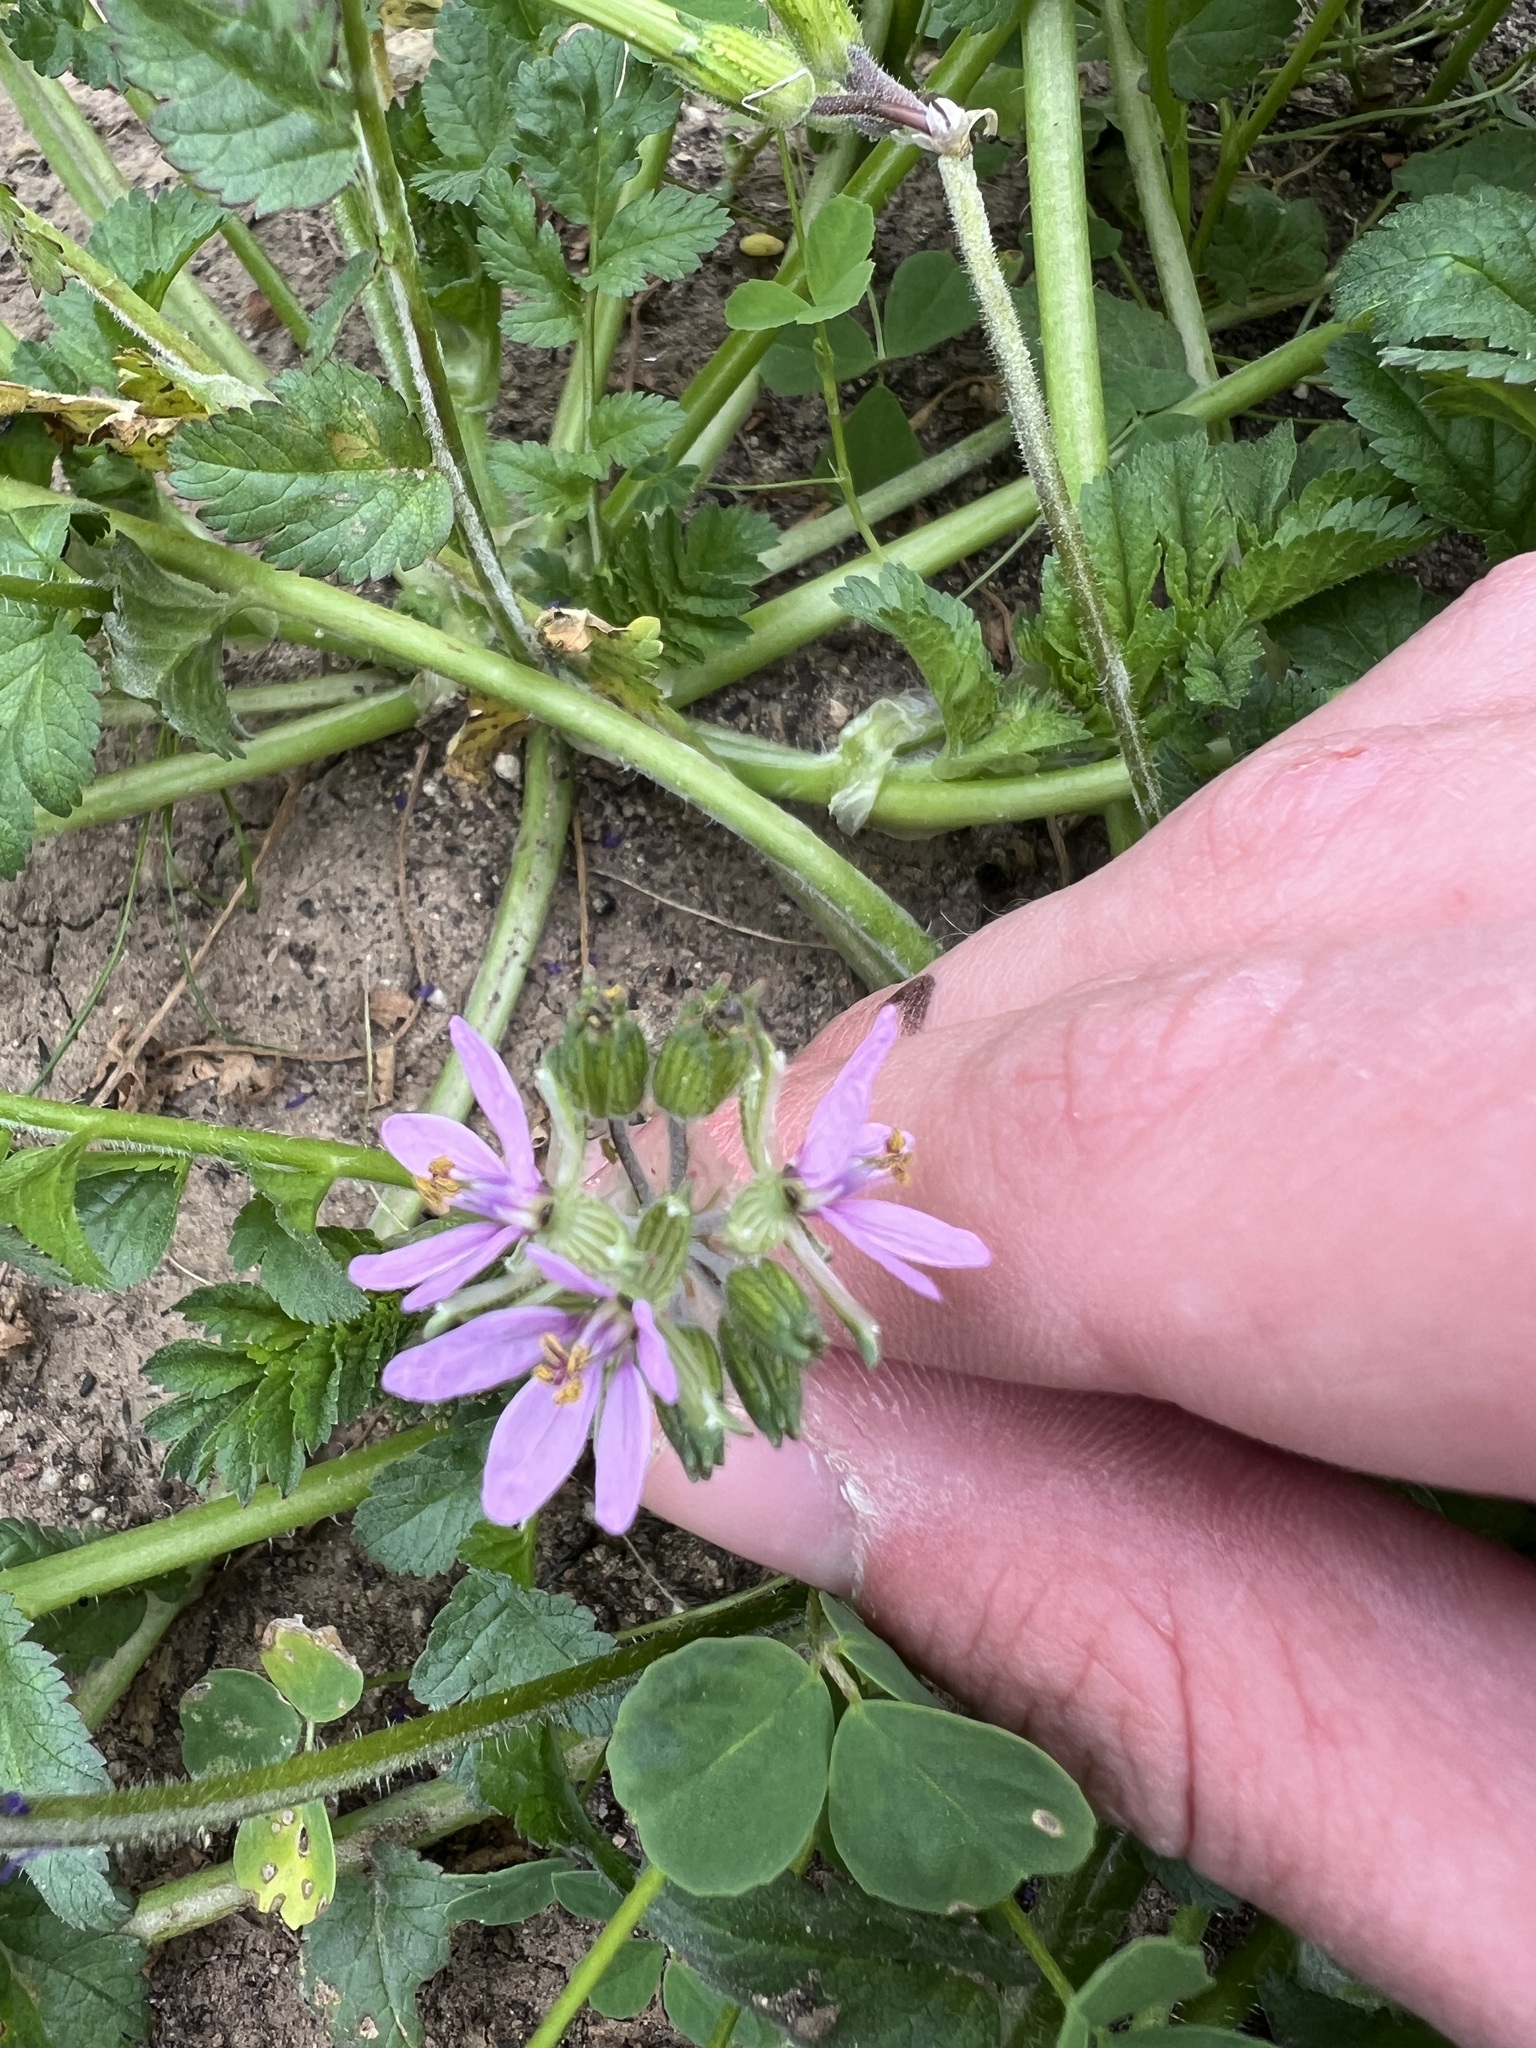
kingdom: Plantae
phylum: Tracheophyta
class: Magnoliopsida
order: Geraniales
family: Geraniaceae
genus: Erodium
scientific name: Erodium moschatum
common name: Musk stork's-bill
